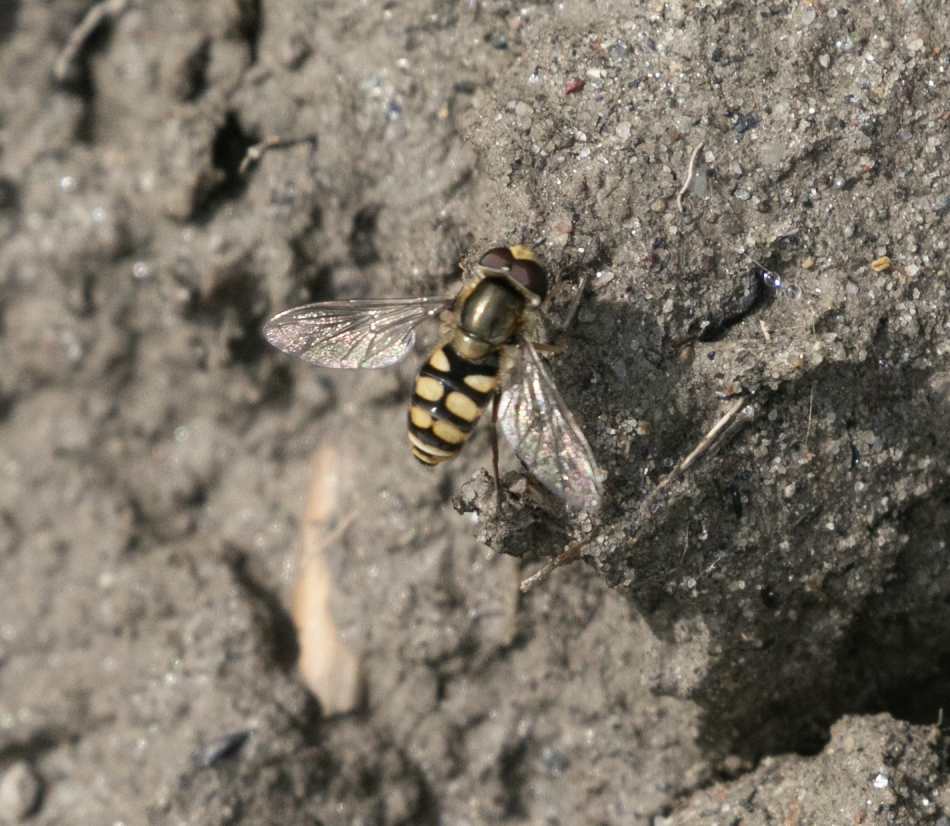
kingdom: Animalia
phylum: Arthropoda
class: Insecta
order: Diptera
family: Syrphidae
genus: Eupeodes
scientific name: Eupeodes corollae
